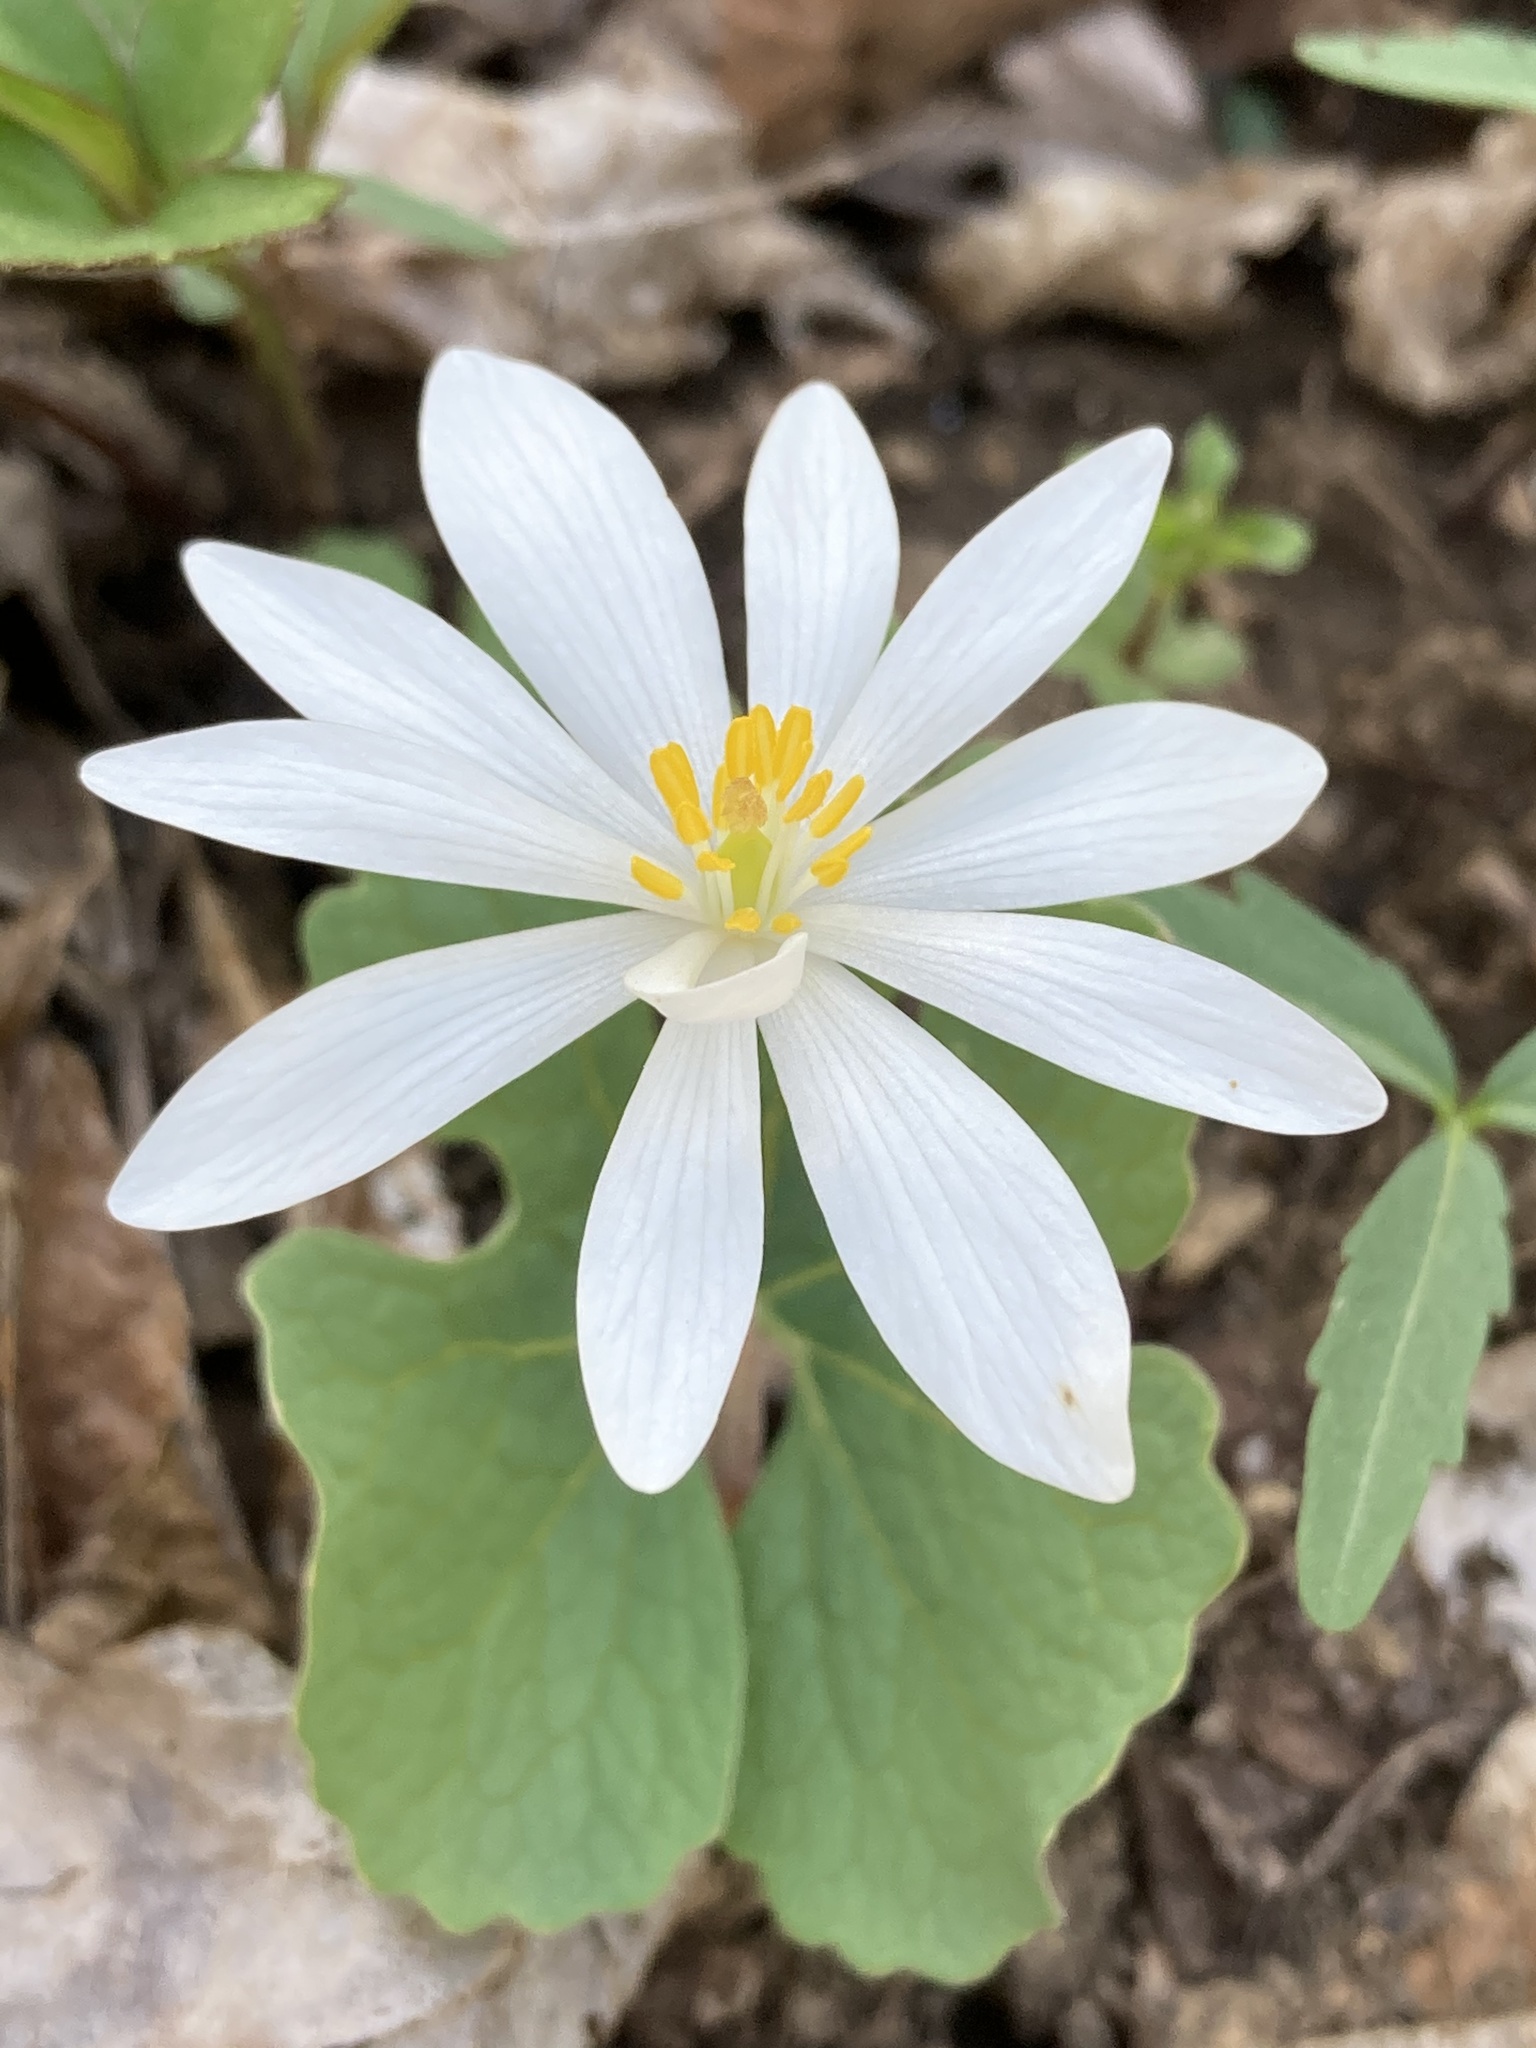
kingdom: Plantae
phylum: Tracheophyta
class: Magnoliopsida
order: Ranunculales
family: Papaveraceae
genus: Sanguinaria
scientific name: Sanguinaria canadensis
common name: Bloodroot
